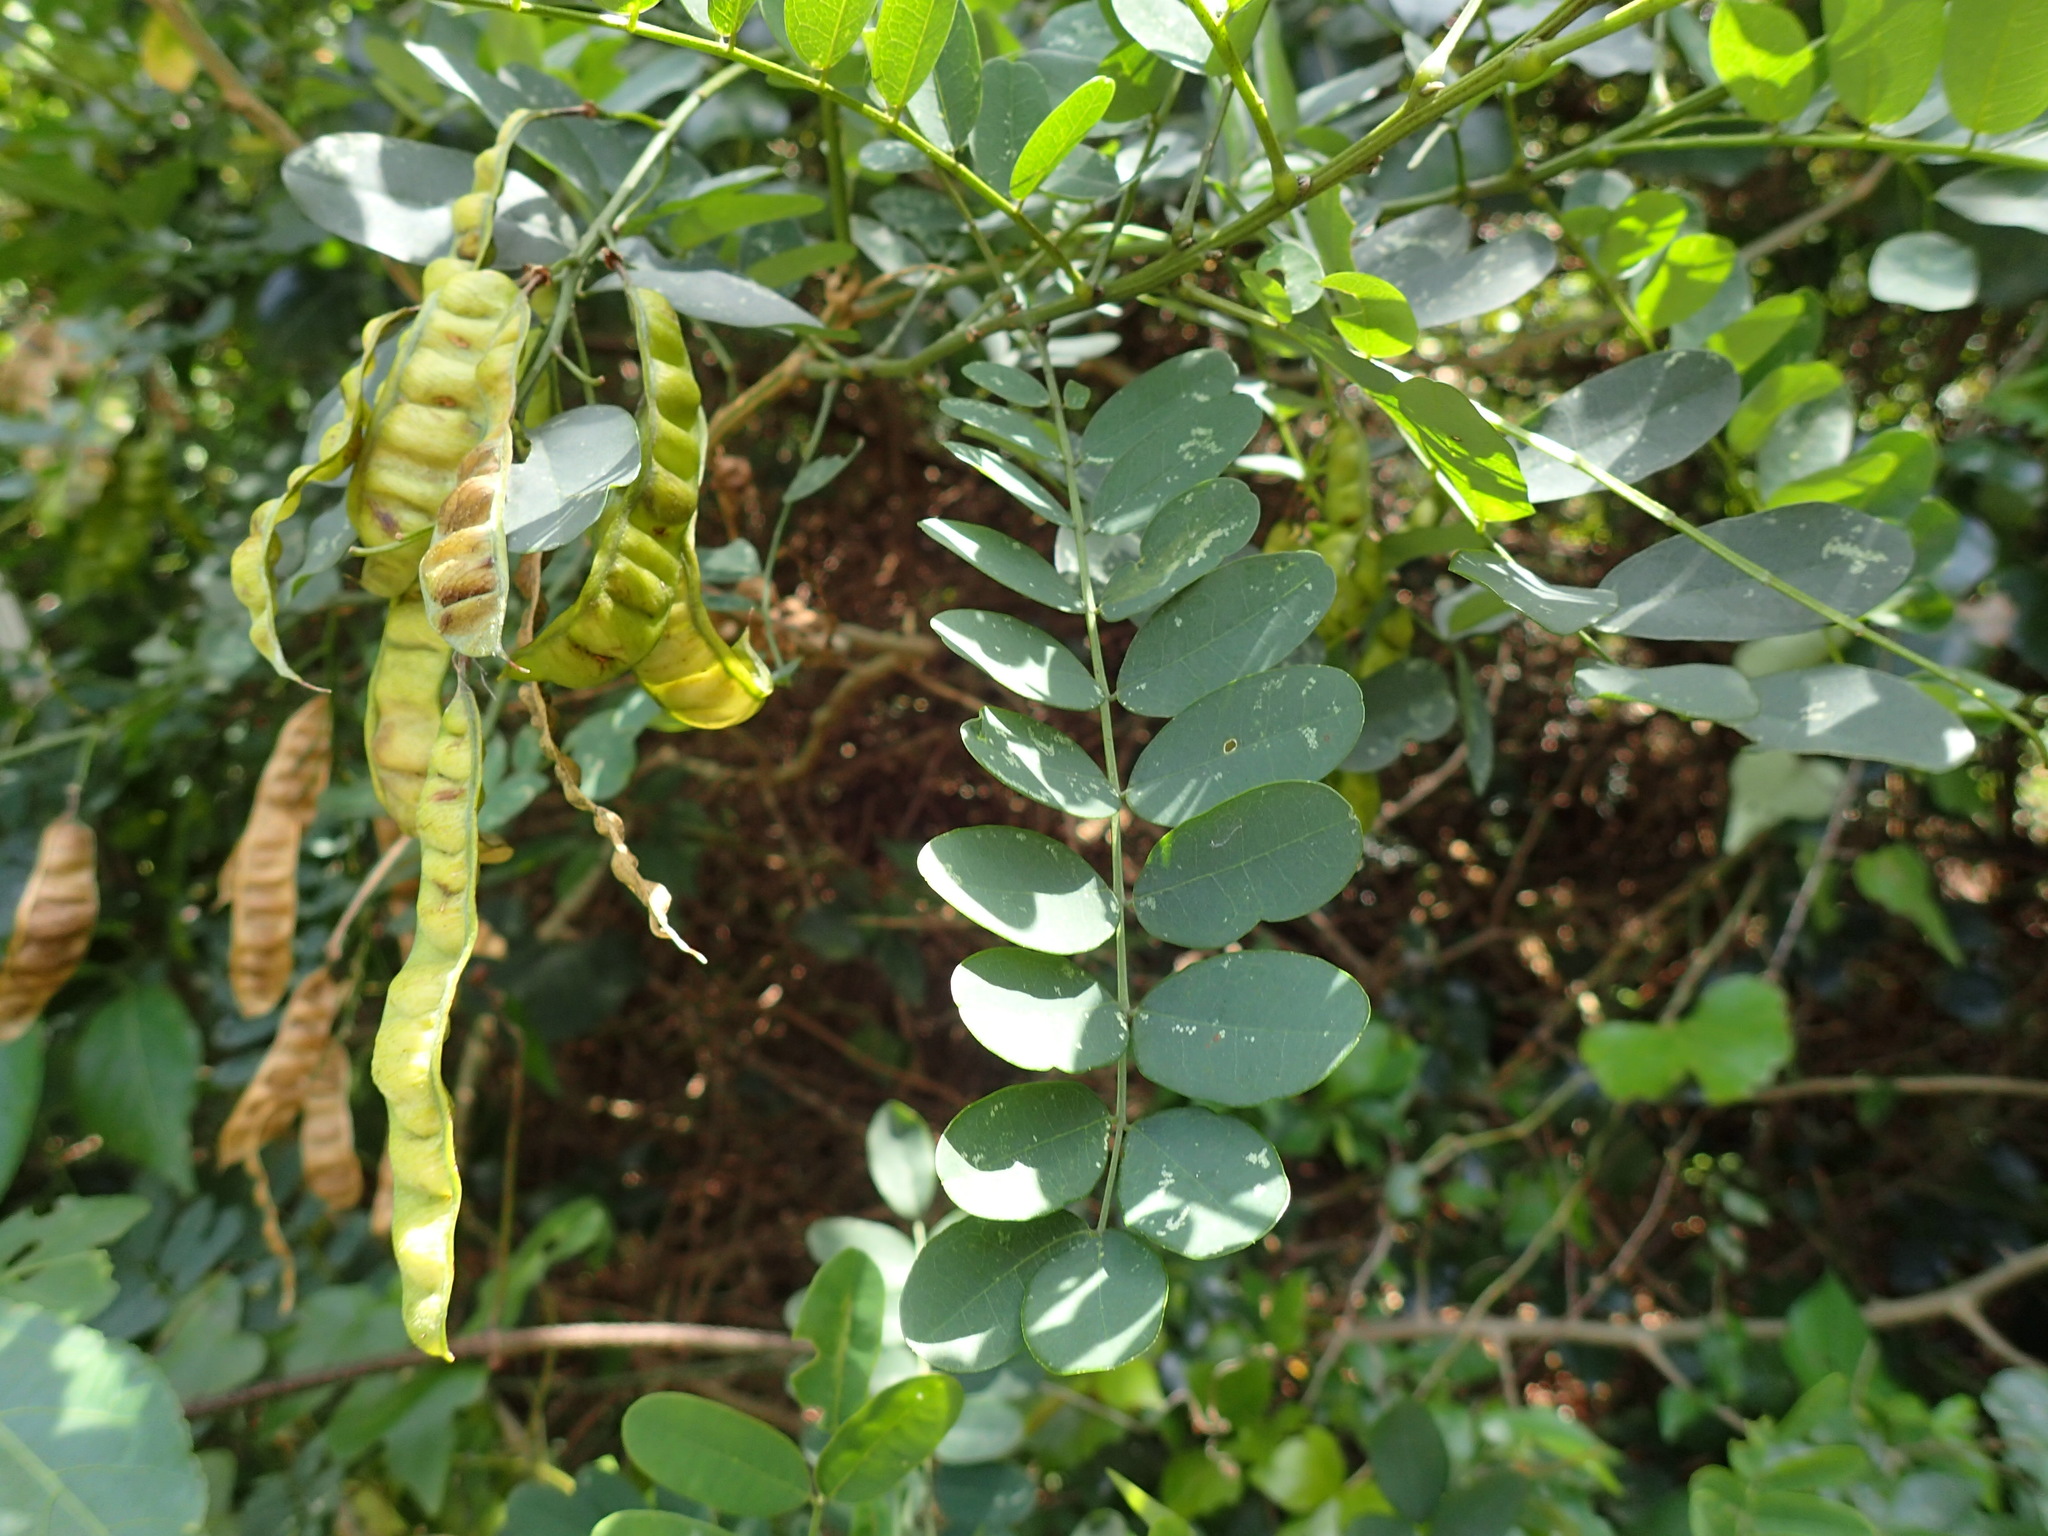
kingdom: Plantae
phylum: Tracheophyta
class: Magnoliopsida
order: Fabales
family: Fabaceae
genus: Calpurnia
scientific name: Calpurnia aurea
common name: Wild laburnum
